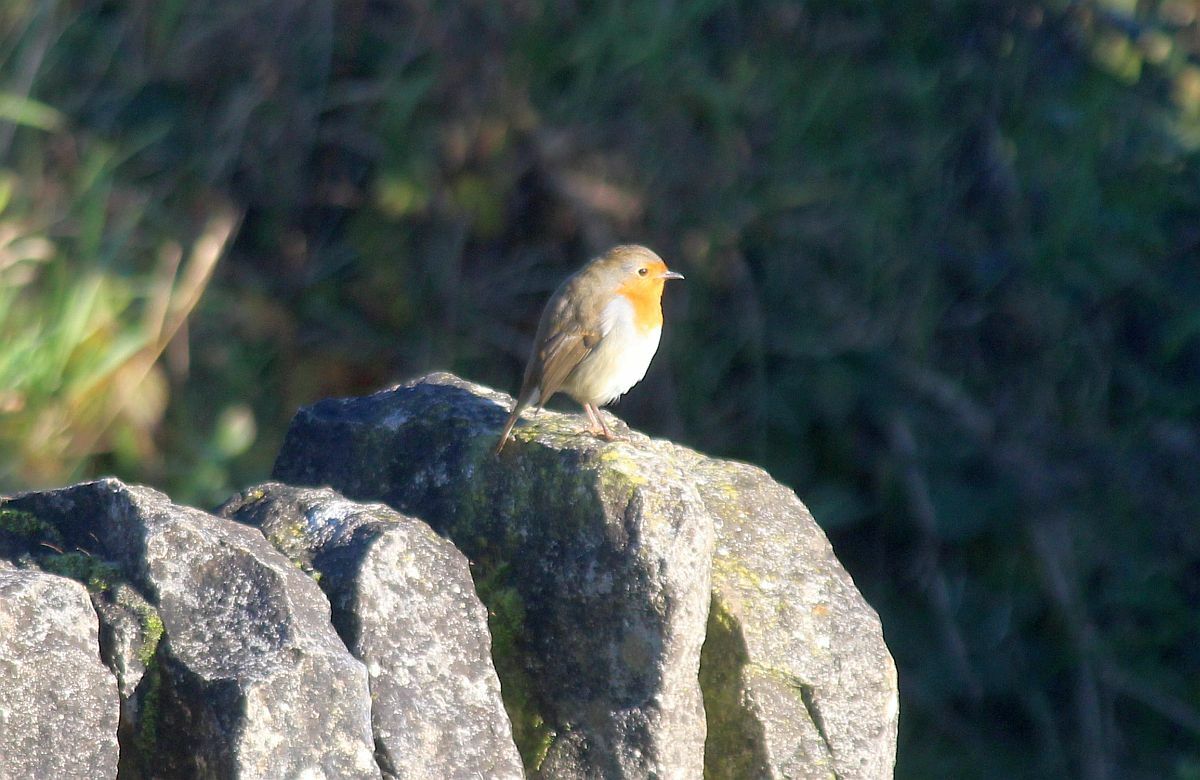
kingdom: Animalia
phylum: Chordata
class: Aves
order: Passeriformes
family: Muscicapidae
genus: Erithacus
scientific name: Erithacus rubecula
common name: European robin
